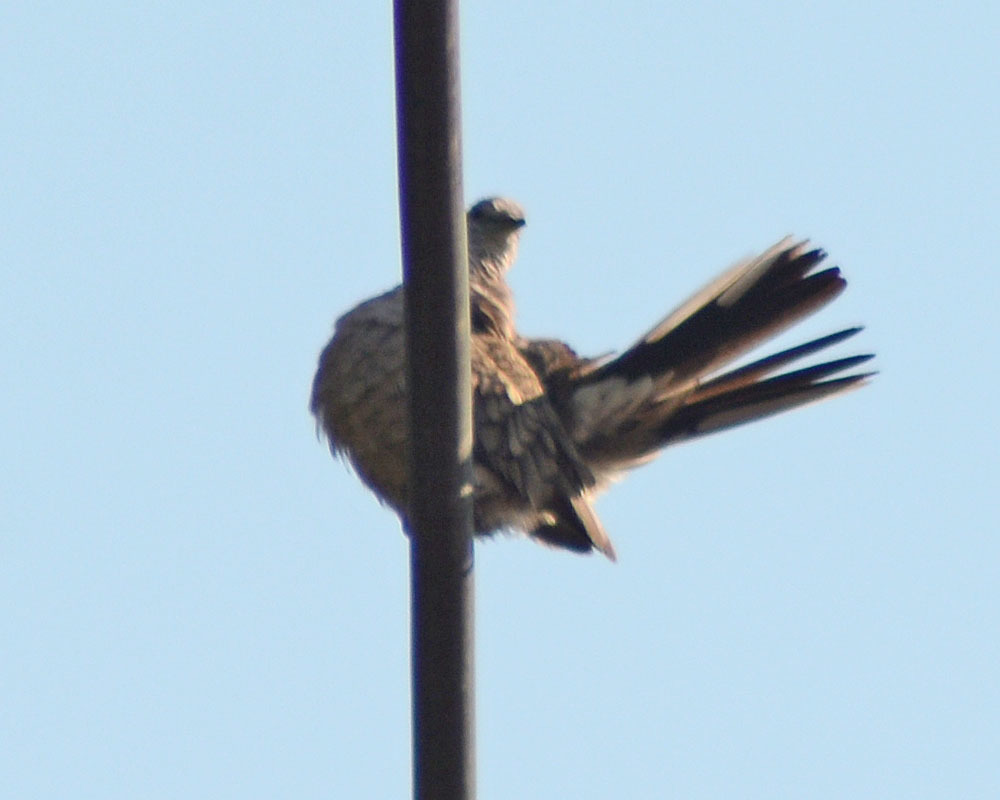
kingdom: Animalia
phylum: Chordata
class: Aves
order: Columbiformes
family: Columbidae
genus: Columbina
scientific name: Columbina inca
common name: Inca dove
